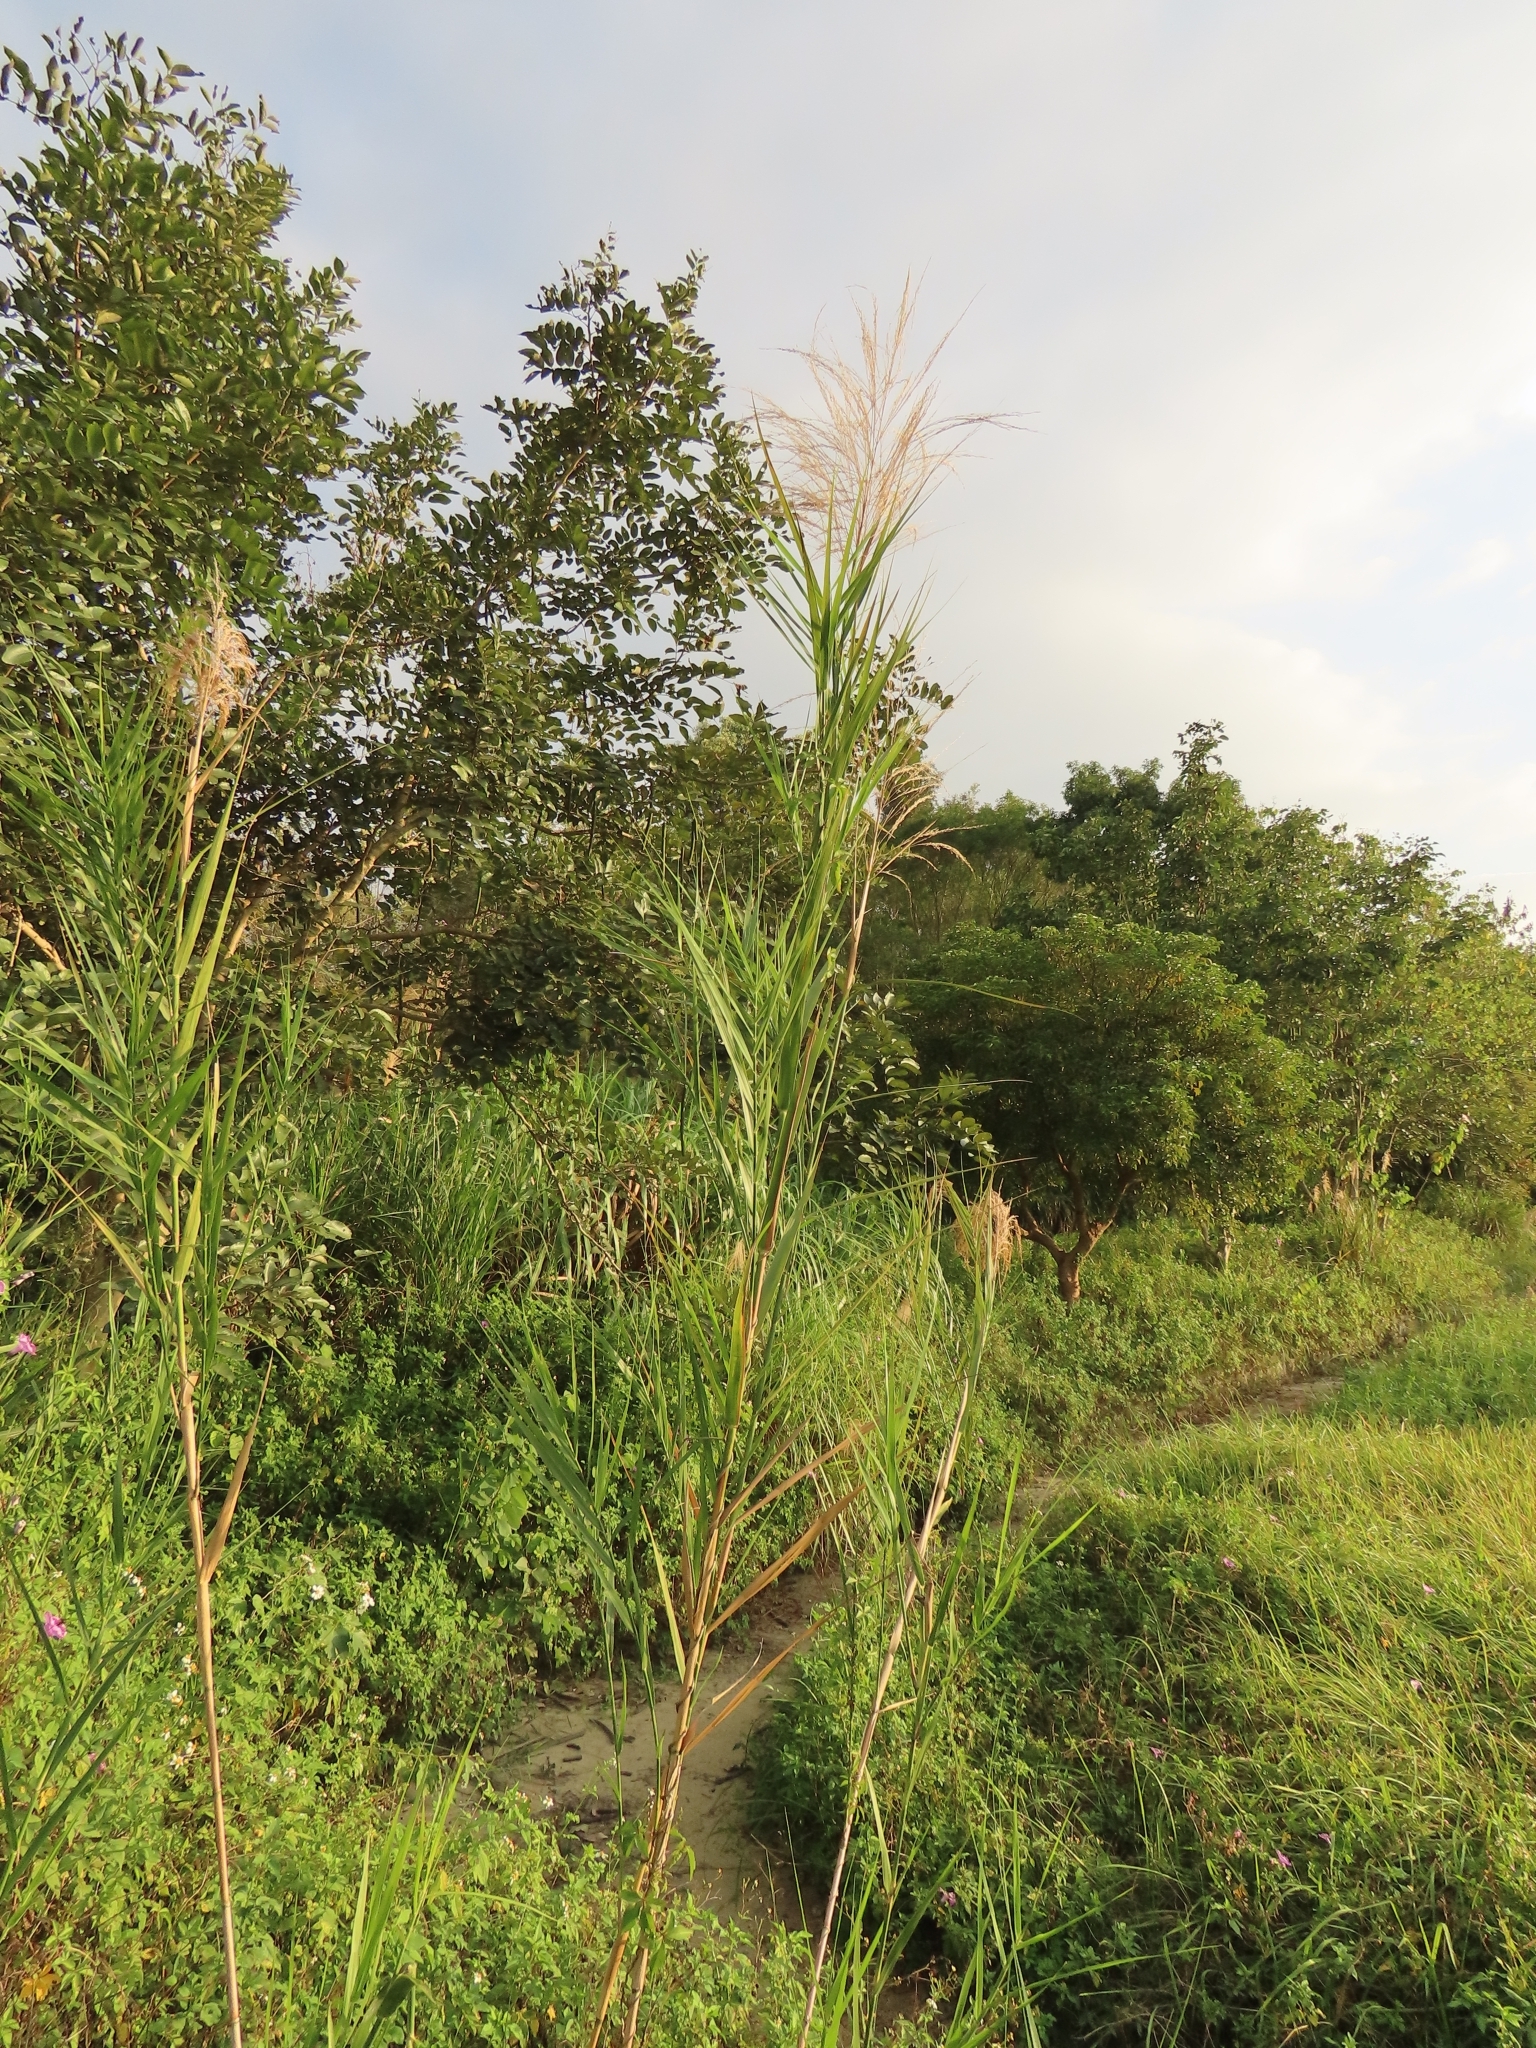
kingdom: Plantae
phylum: Tracheophyta
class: Liliopsida
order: Poales
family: Poaceae
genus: Phragmites
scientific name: Phragmites karka
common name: Tropical reed
